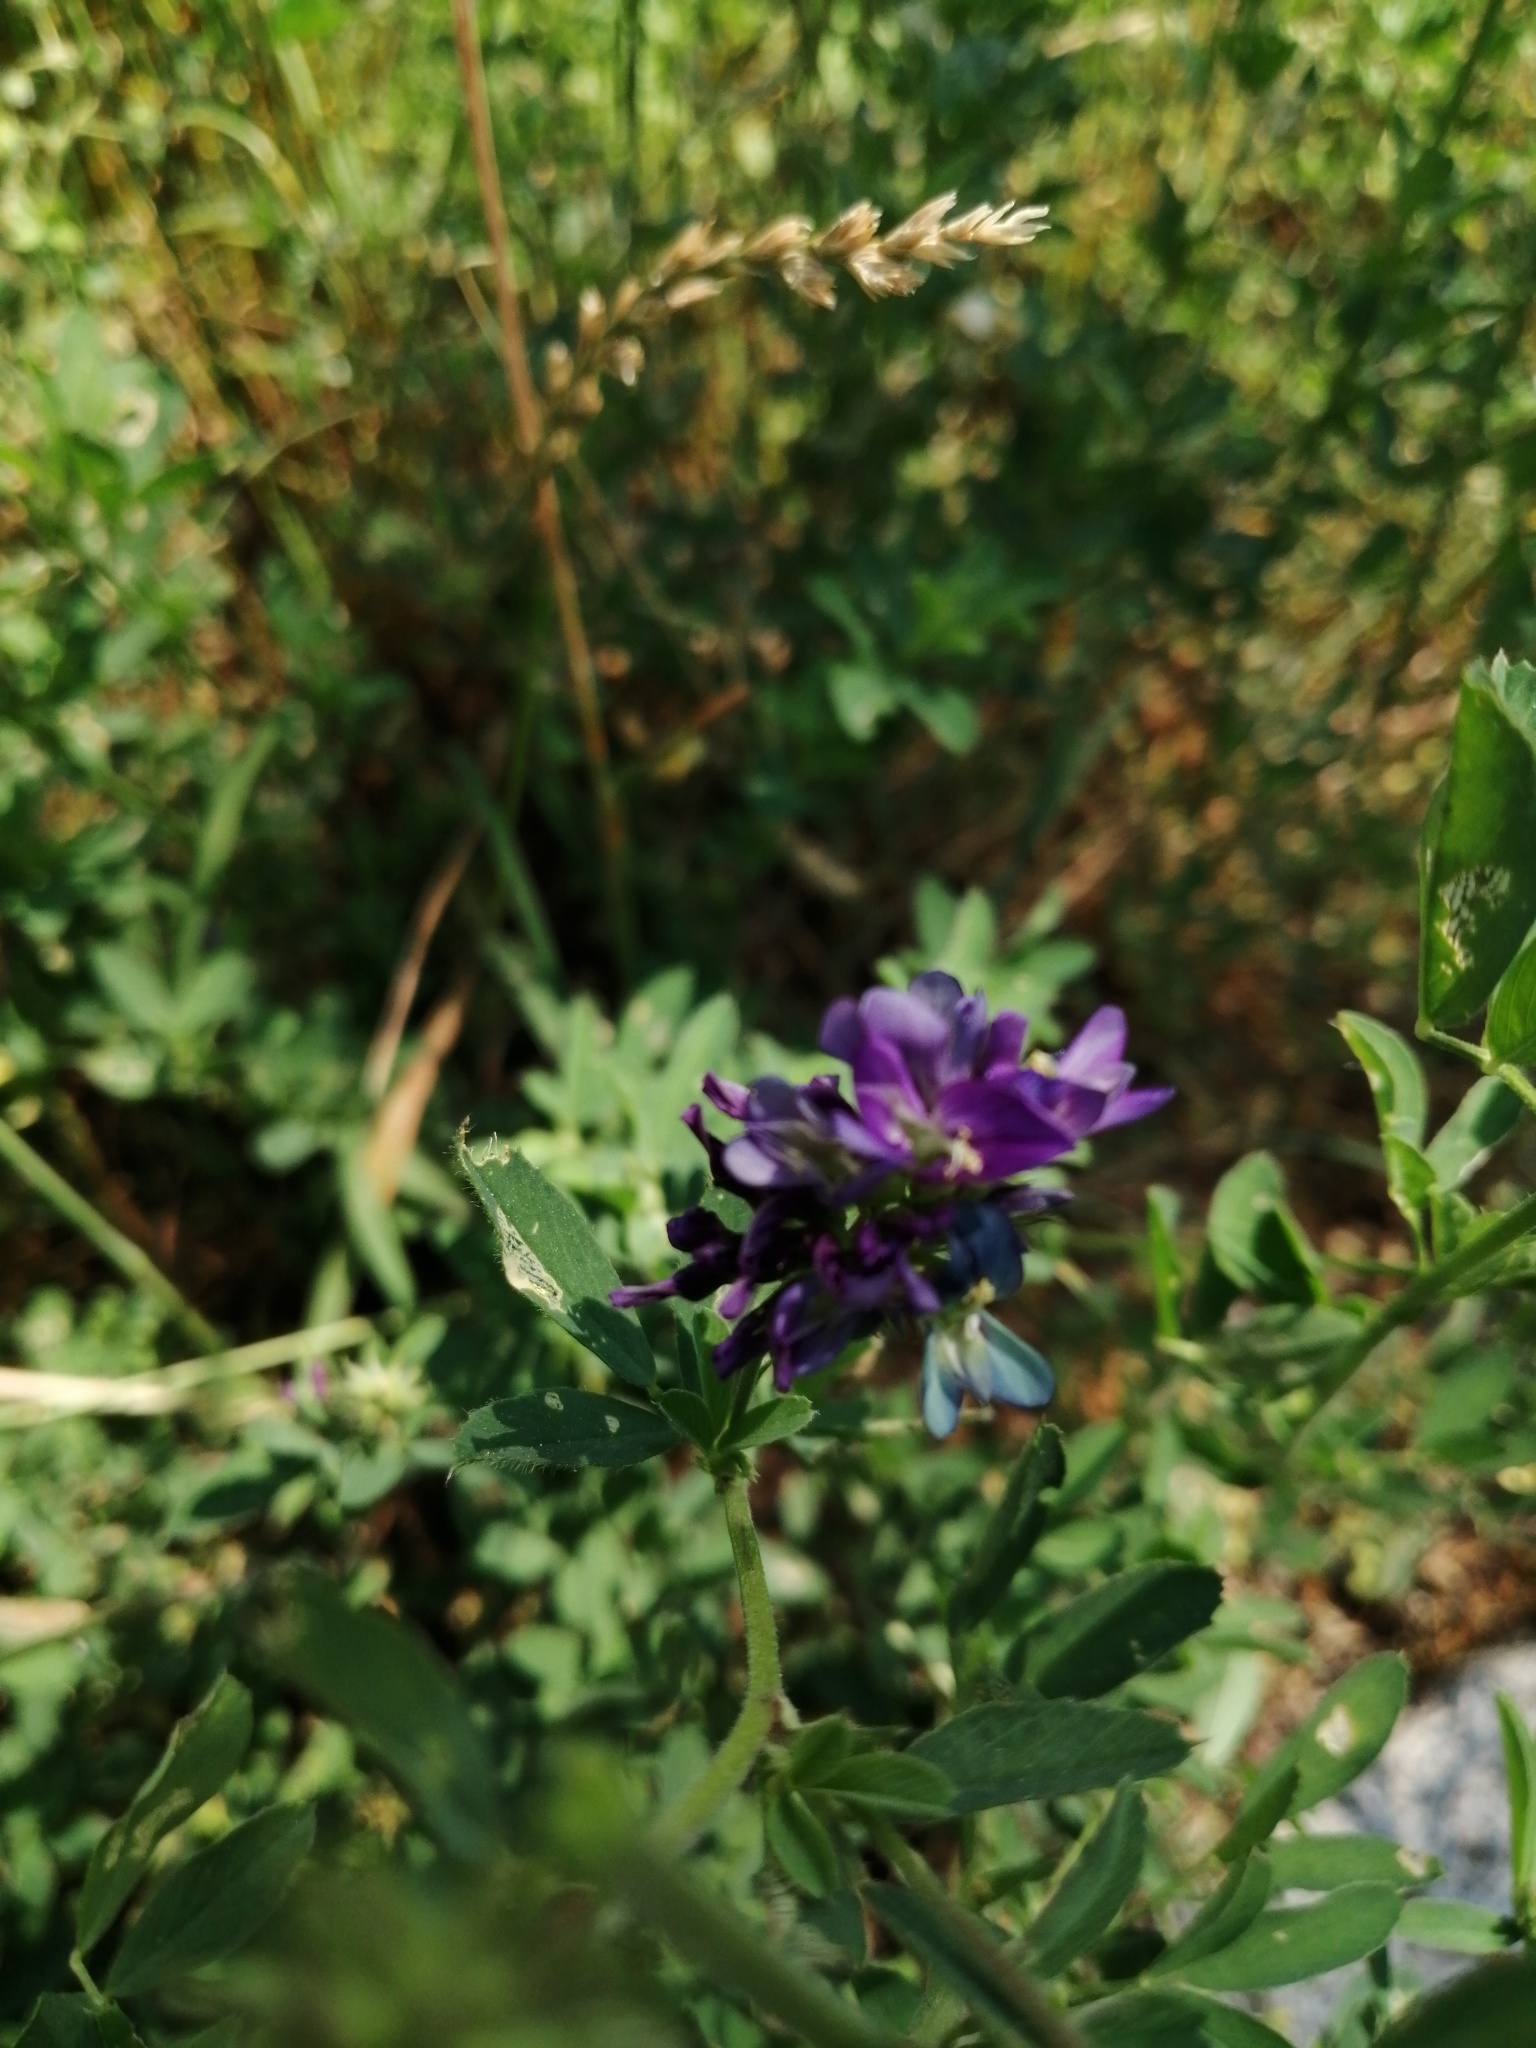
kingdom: Plantae
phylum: Tracheophyta
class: Magnoliopsida
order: Fabales
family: Fabaceae
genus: Medicago
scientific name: Medicago sativa
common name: Alfalfa
